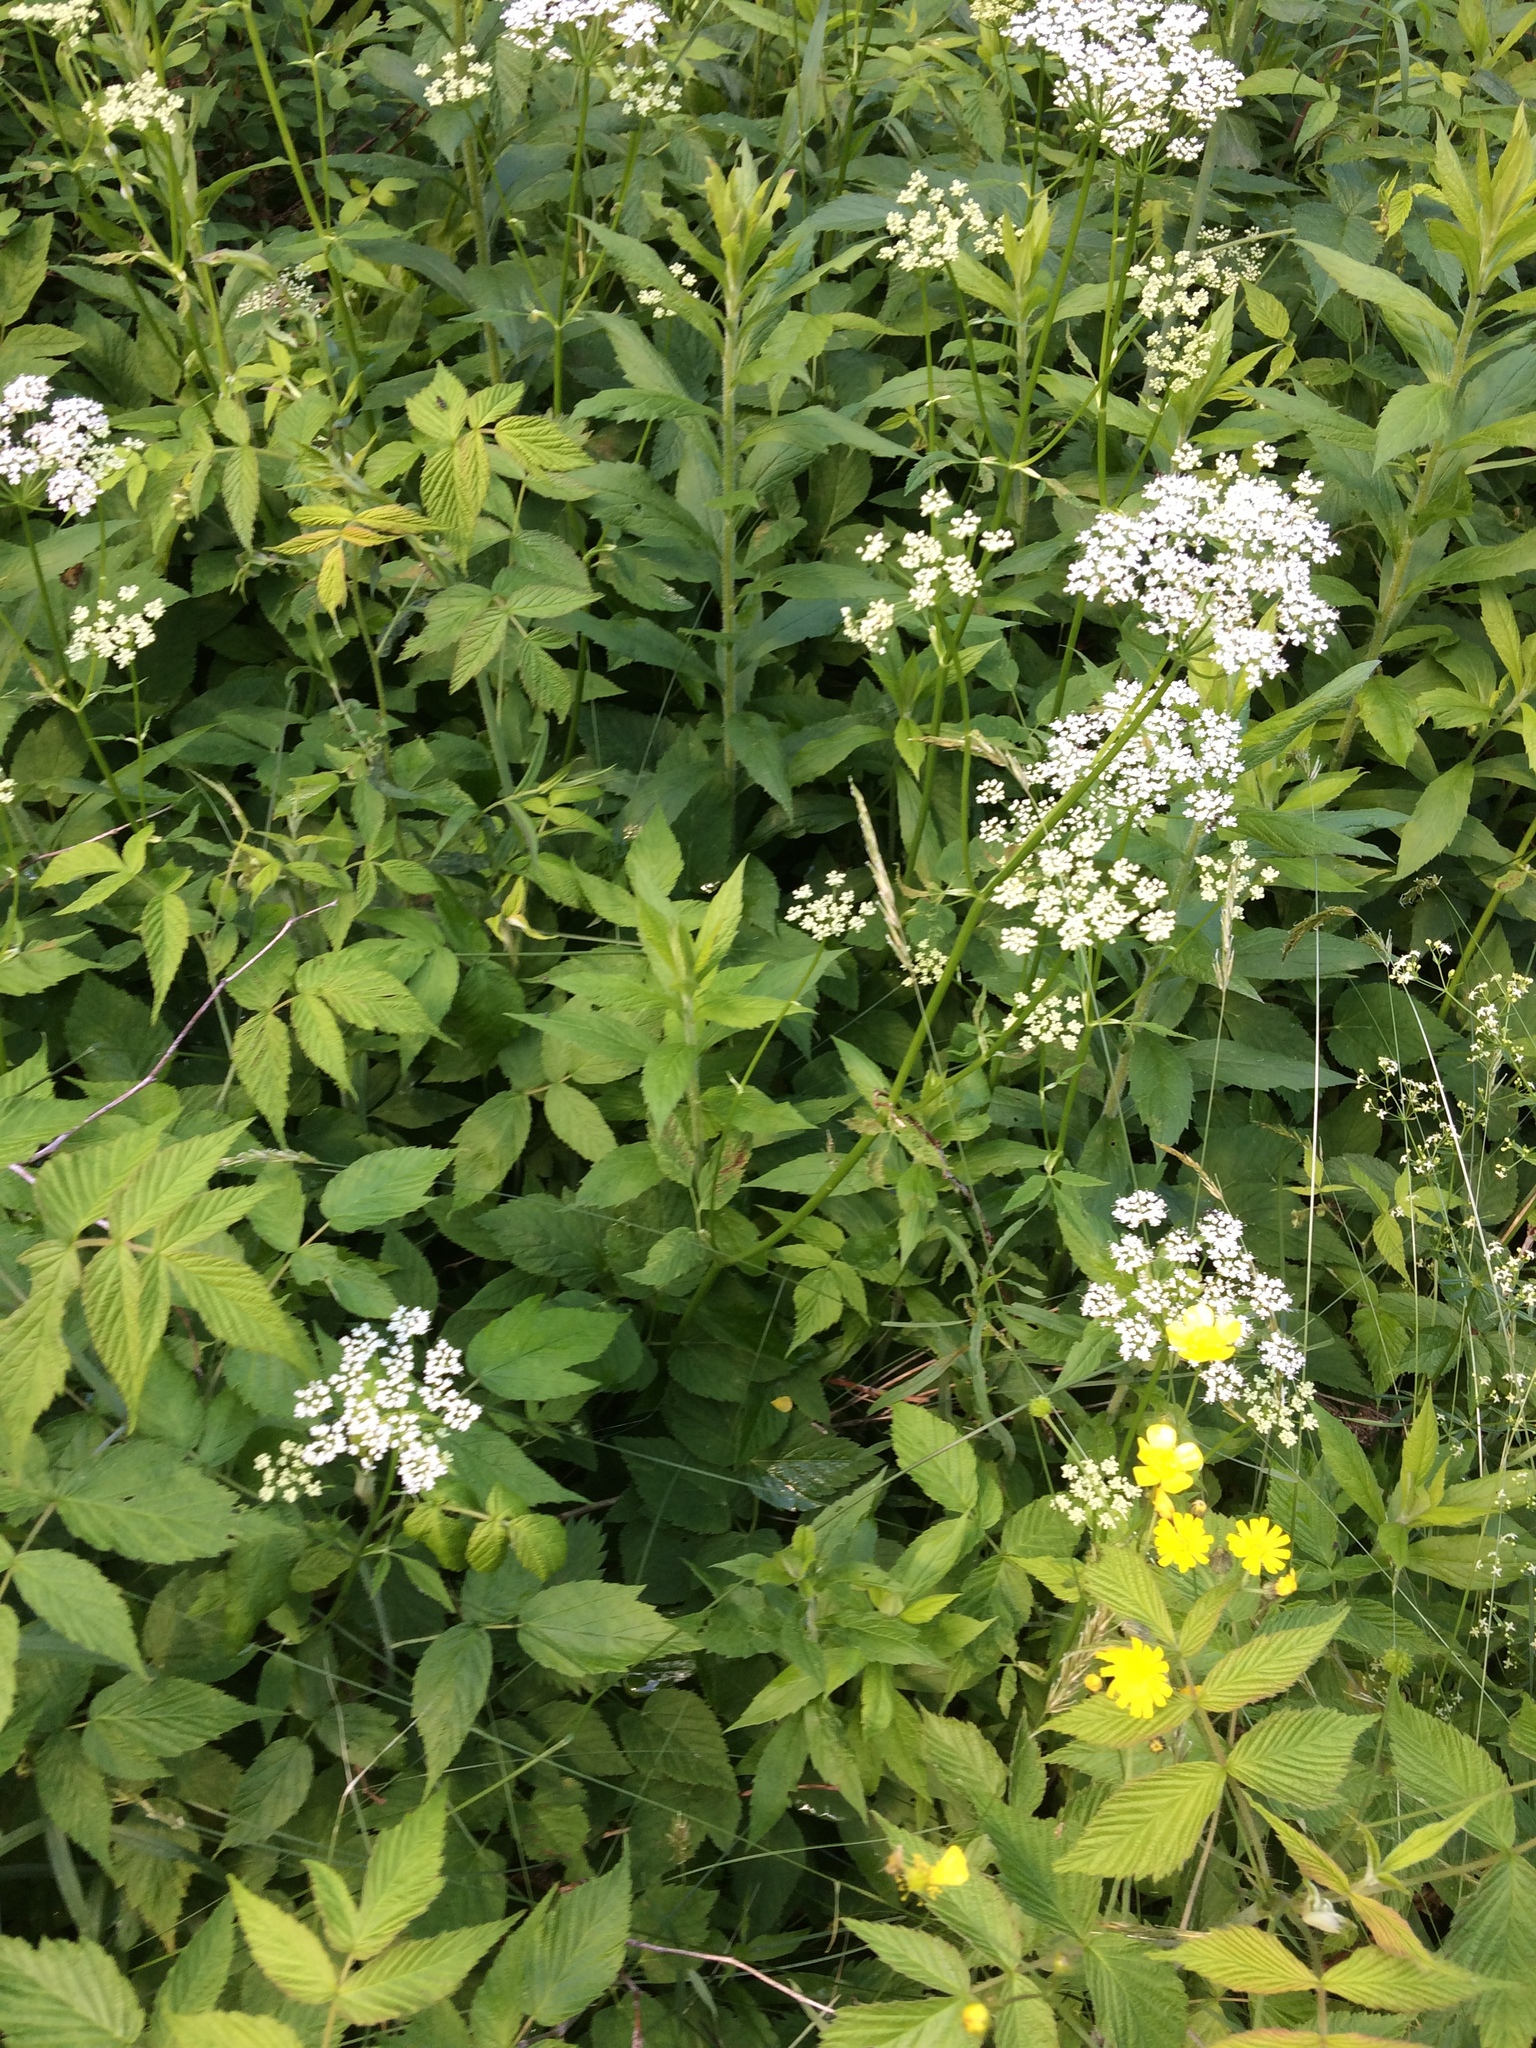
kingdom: Plantae
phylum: Tracheophyta
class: Magnoliopsida
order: Apiales
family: Apiaceae
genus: Aegopodium
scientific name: Aegopodium podagraria
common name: Ground-elder
